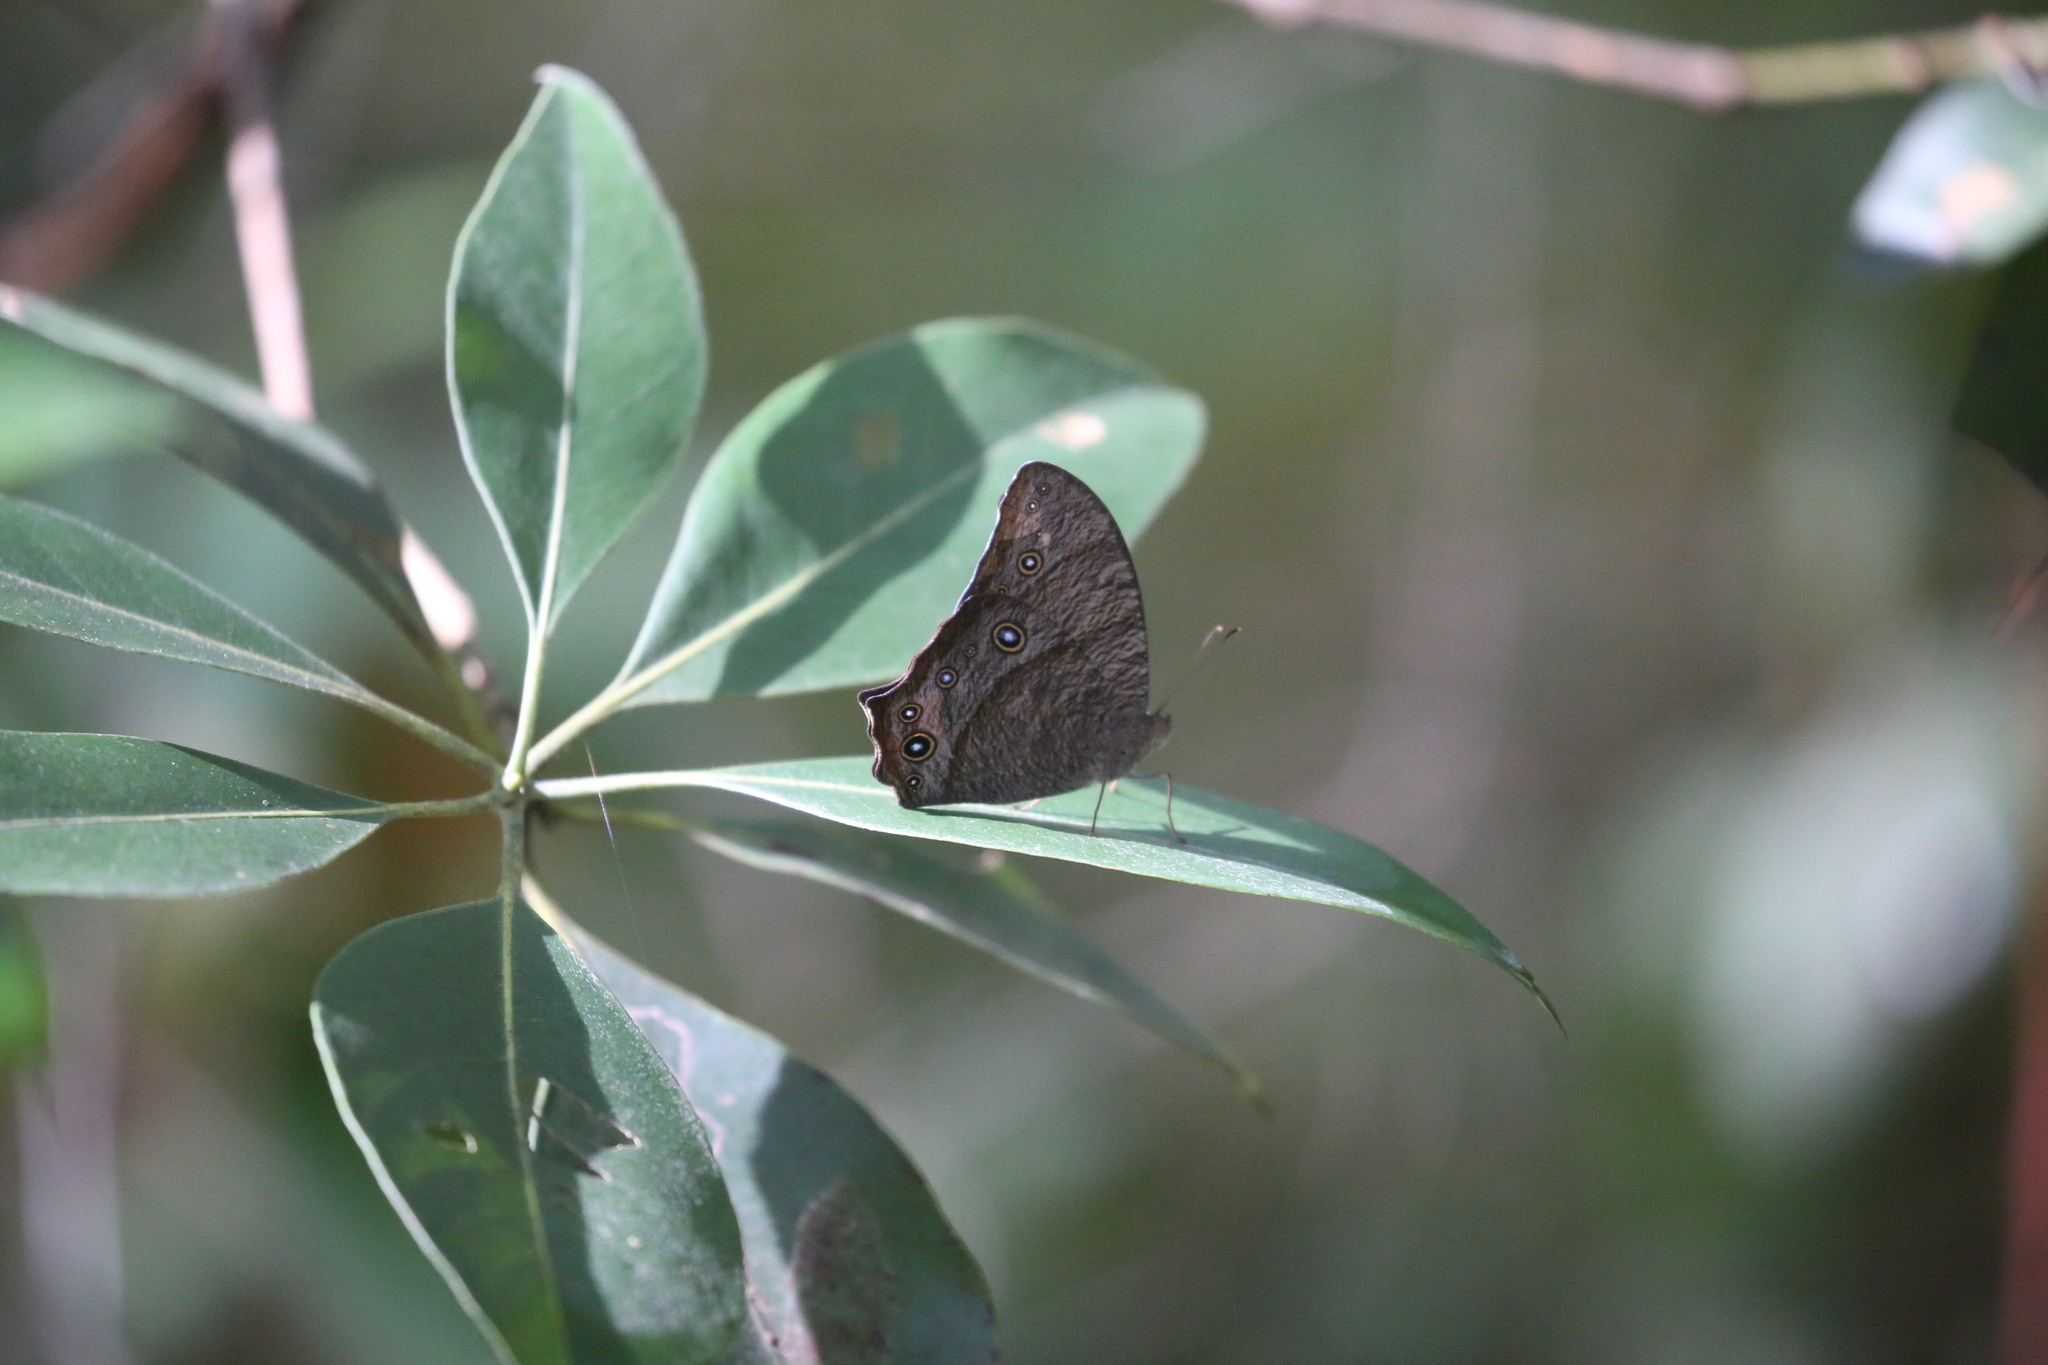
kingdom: Animalia
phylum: Arthropoda
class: Insecta
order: Lepidoptera
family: Nymphalidae
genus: Melanitis
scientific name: Melanitis leda
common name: Twilight brown
